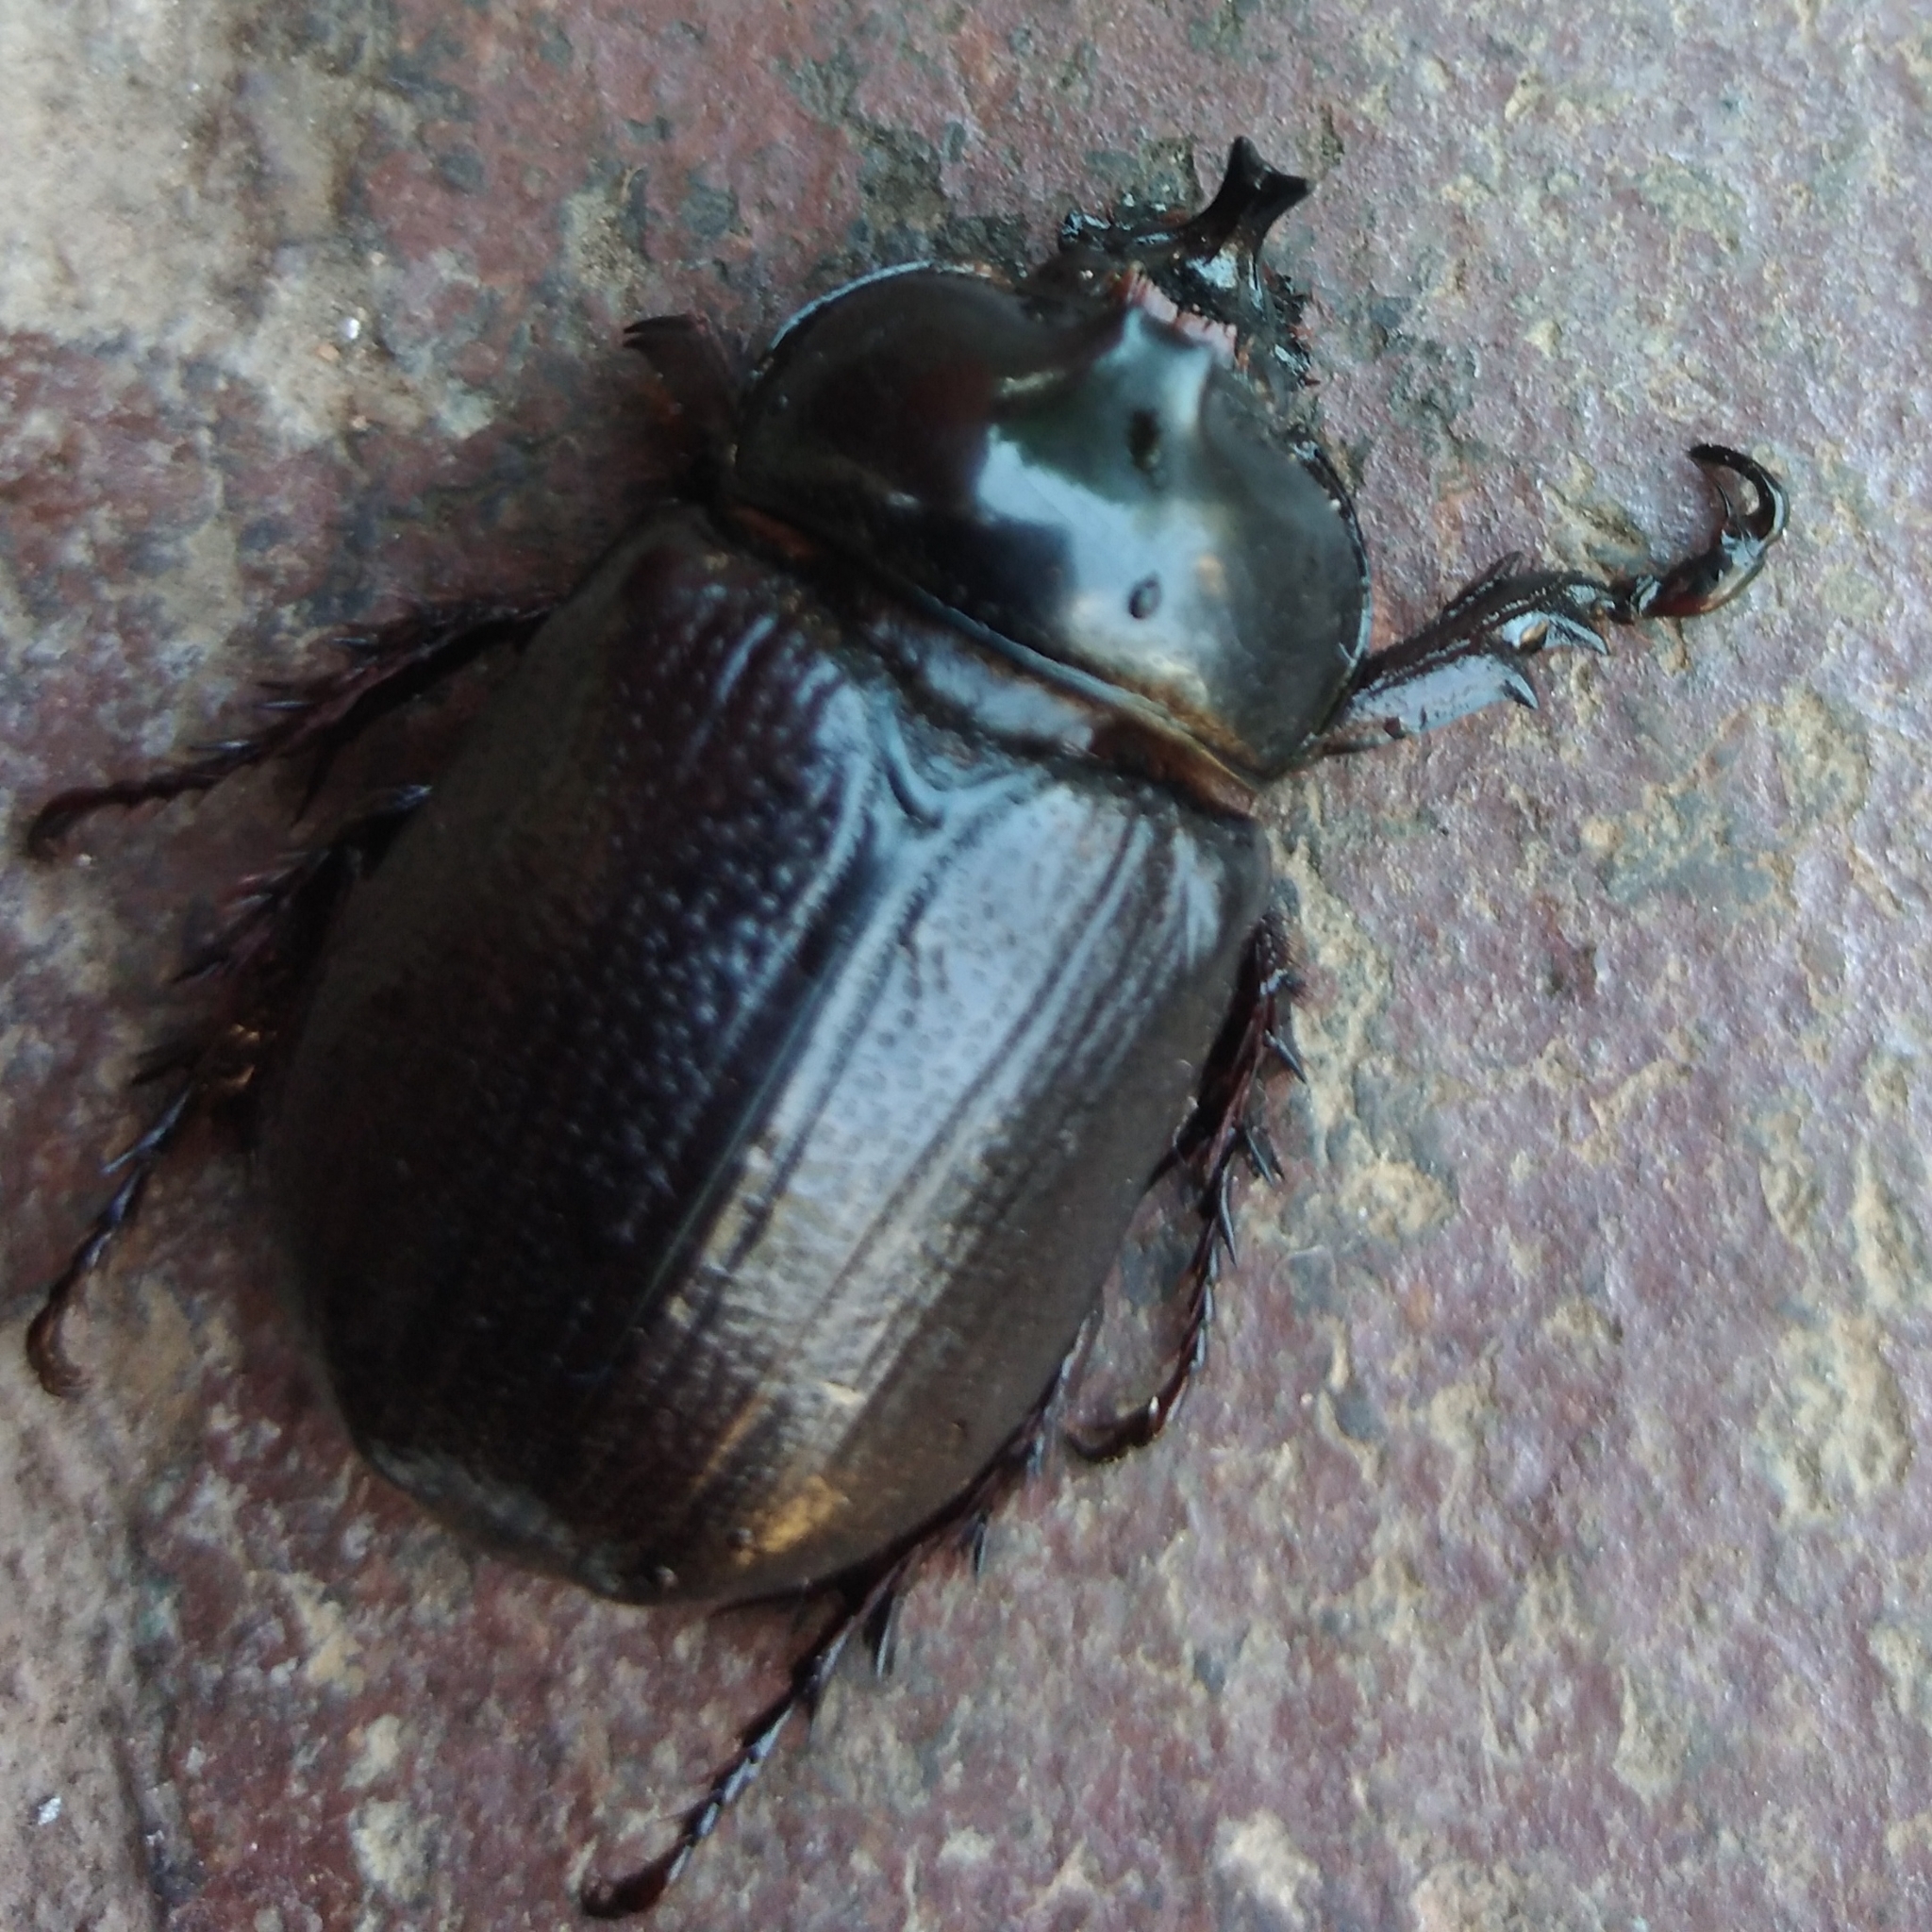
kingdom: Animalia
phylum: Arthropoda
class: Insecta
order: Coleoptera
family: Scarabaeidae
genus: Cyphonistes
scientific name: Cyphonistes vallatus
